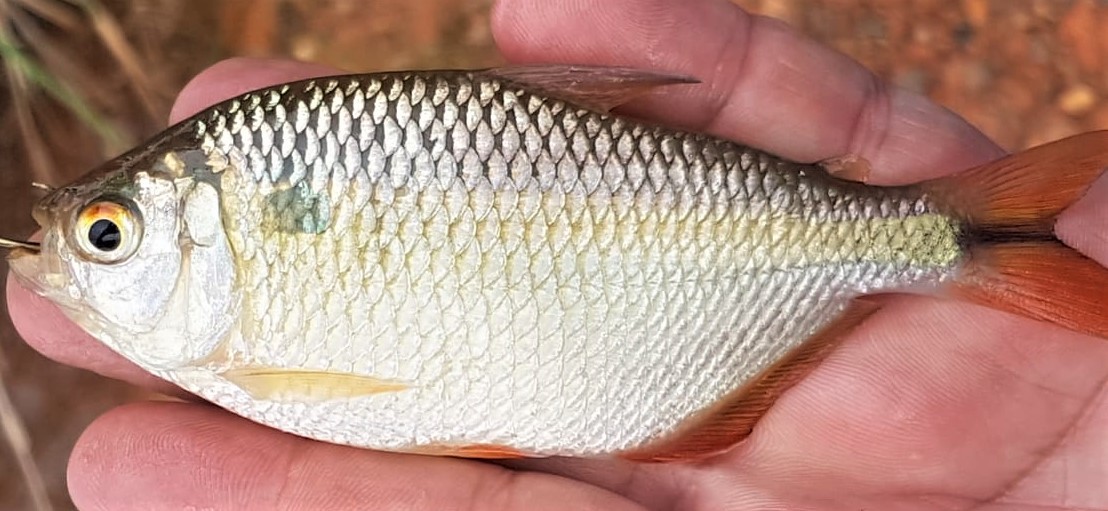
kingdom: Animalia
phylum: Chordata
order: Characiformes
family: Characidae
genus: Astyanax
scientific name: Astyanax bimaculatus
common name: Twospot astyanax
